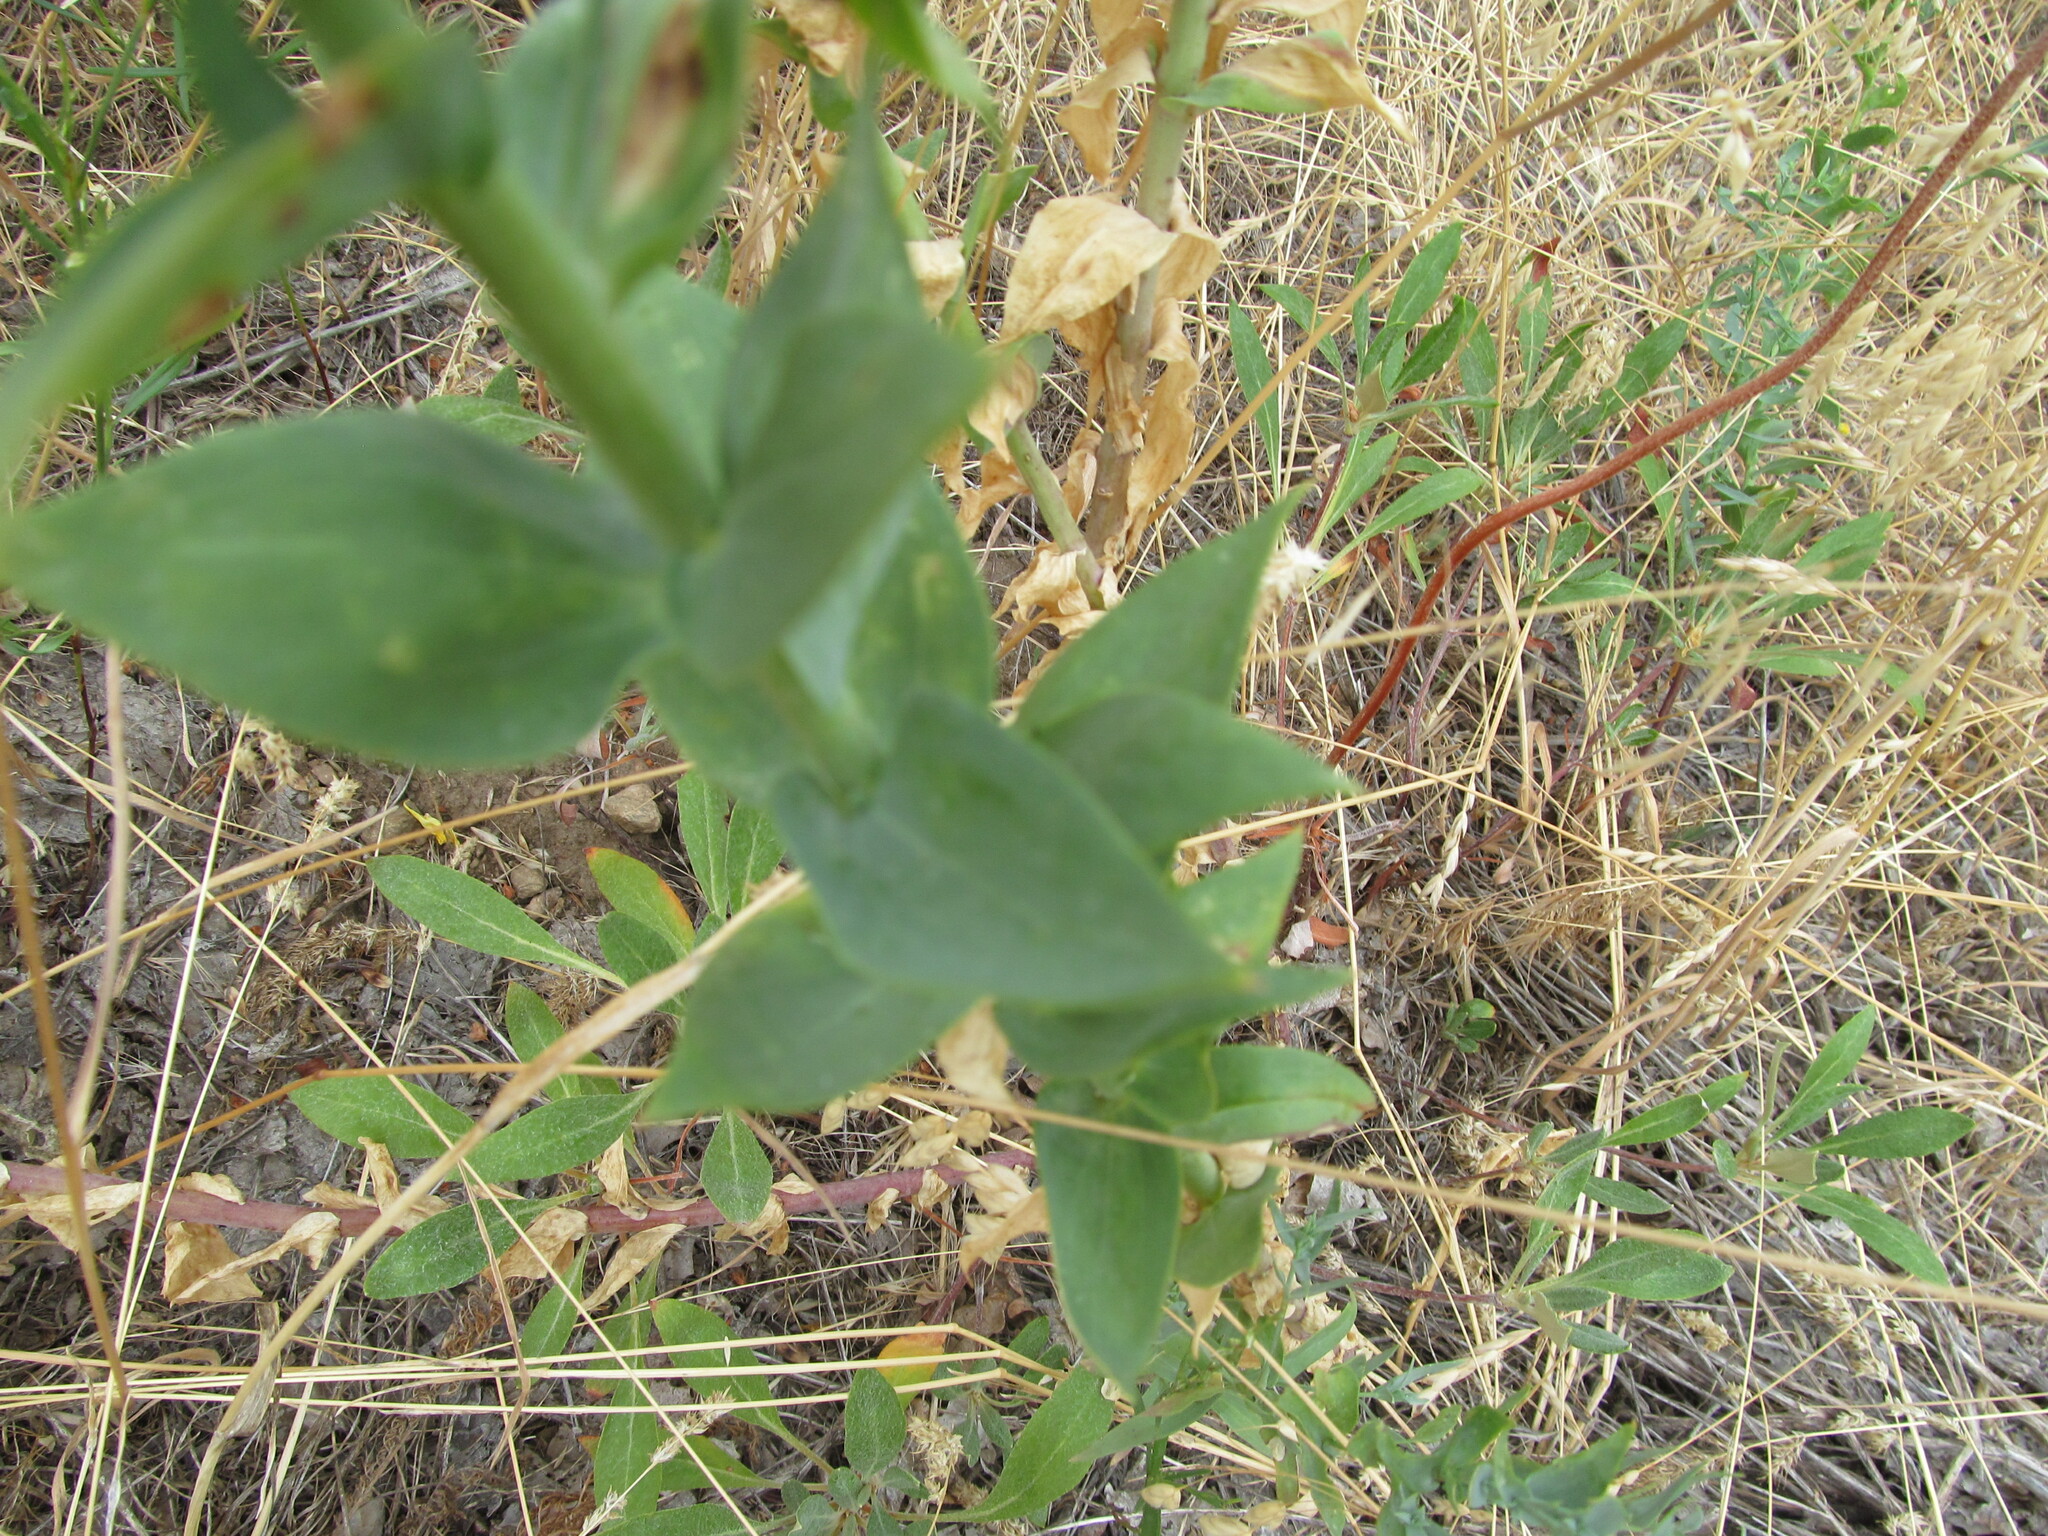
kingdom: Plantae
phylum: Tracheophyta
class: Magnoliopsida
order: Lamiales
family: Plantaginaceae
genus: Linaria
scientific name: Linaria dalmatica
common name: Dalmatian toadflax
